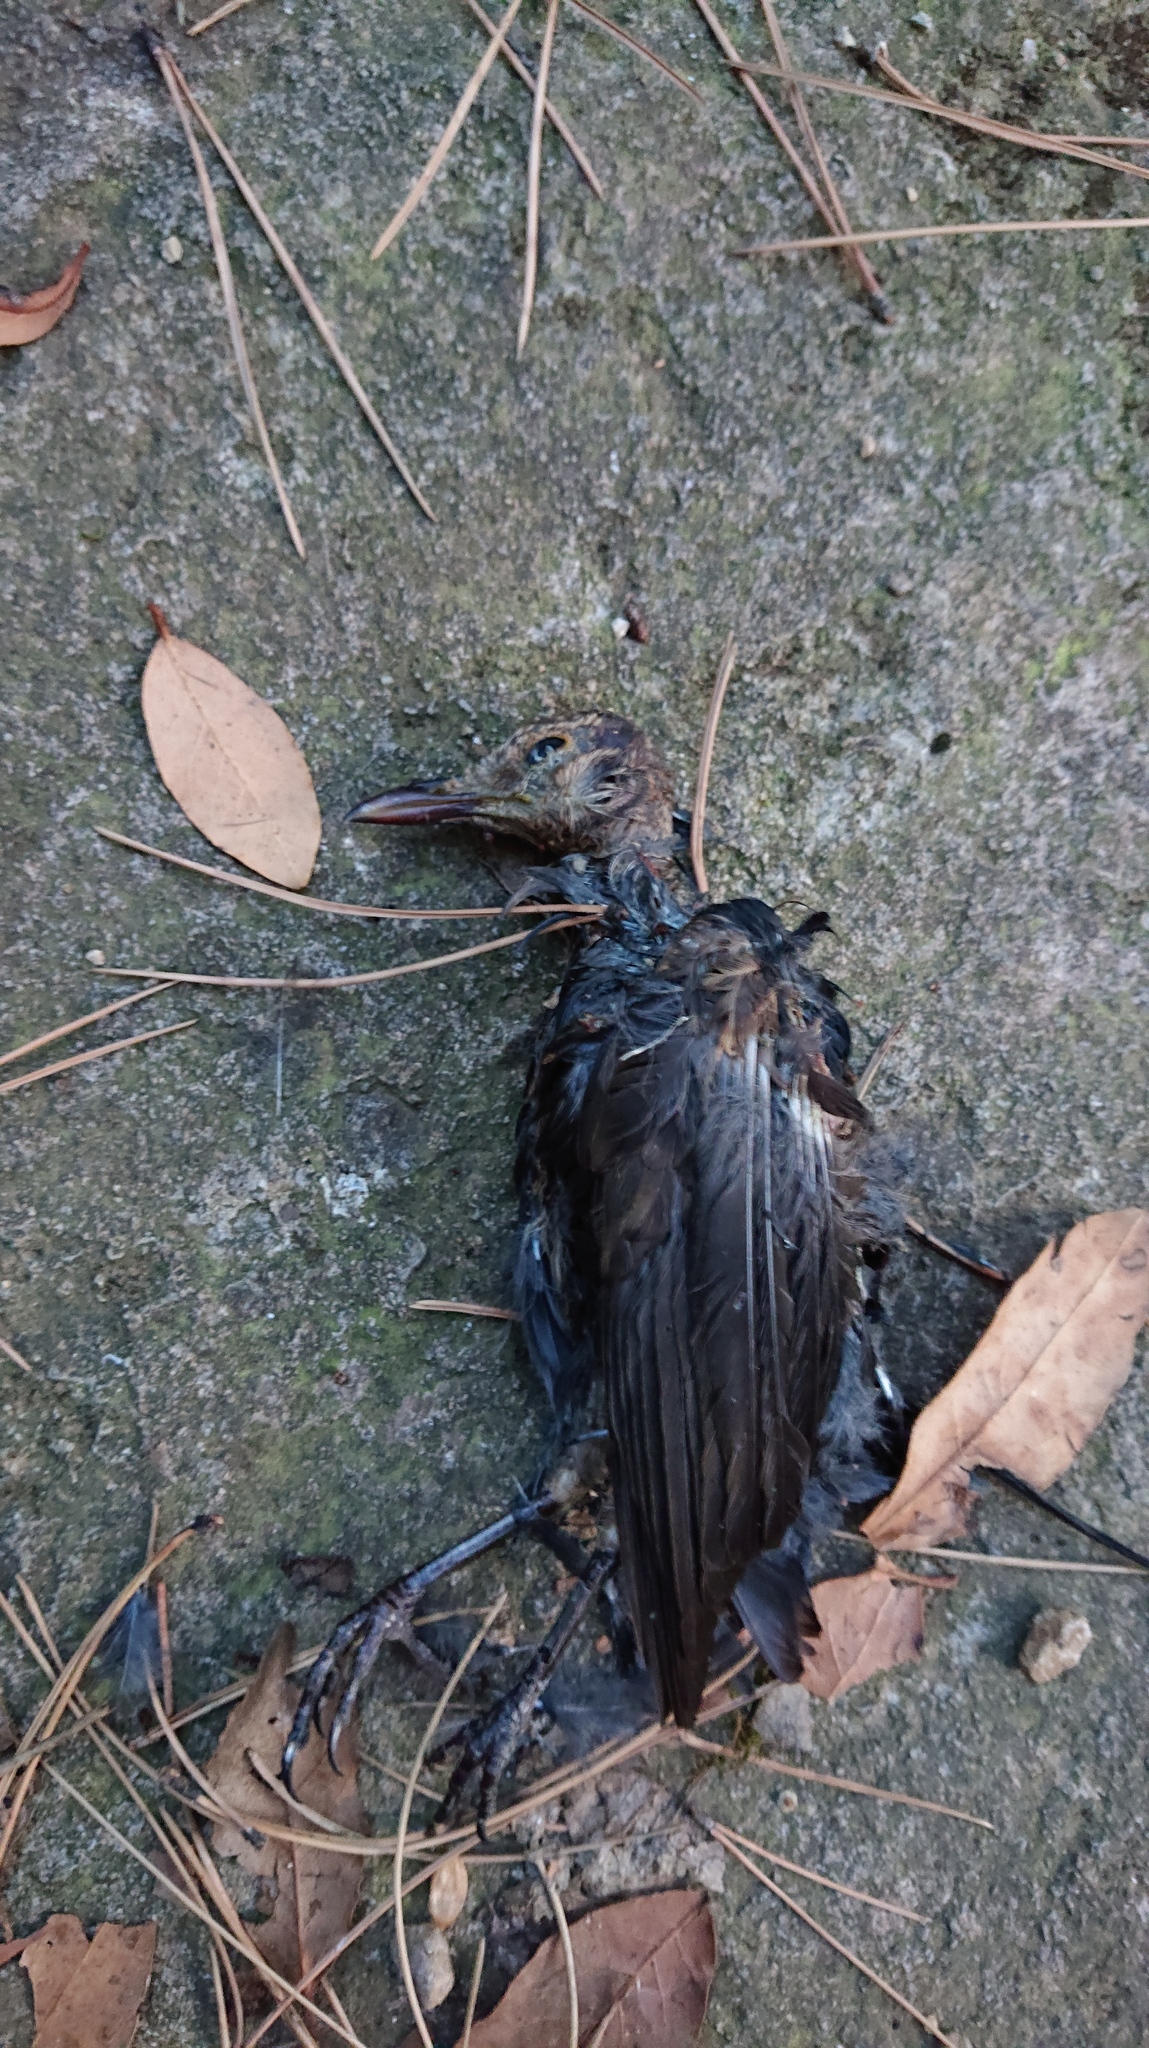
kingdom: Animalia
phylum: Chordata
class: Aves
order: Passeriformes
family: Turdidae
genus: Turdus
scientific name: Turdus merula
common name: Common blackbird
